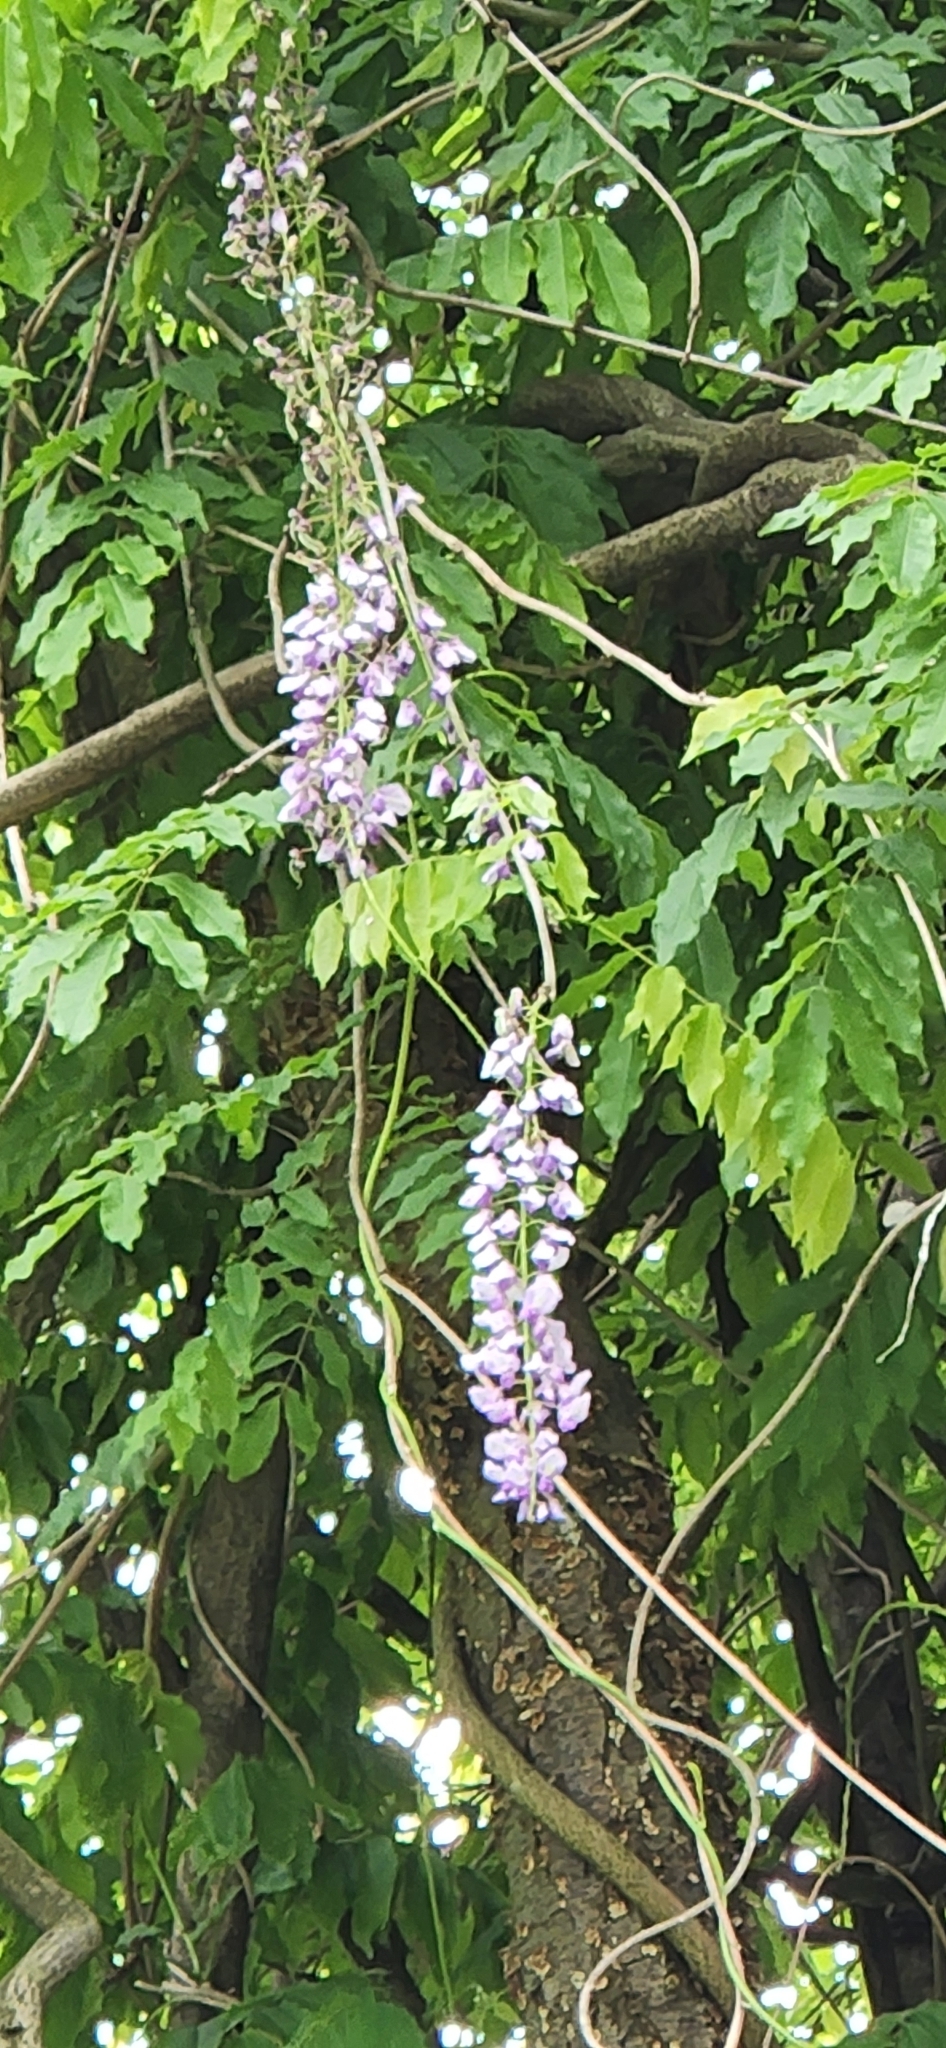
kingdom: Plantae
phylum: Tracheophyta
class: Magnoliopsida
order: Fabales
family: Fabaceae
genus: Wisteria
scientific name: Wisteria floribunda
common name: Japanese wisteria
